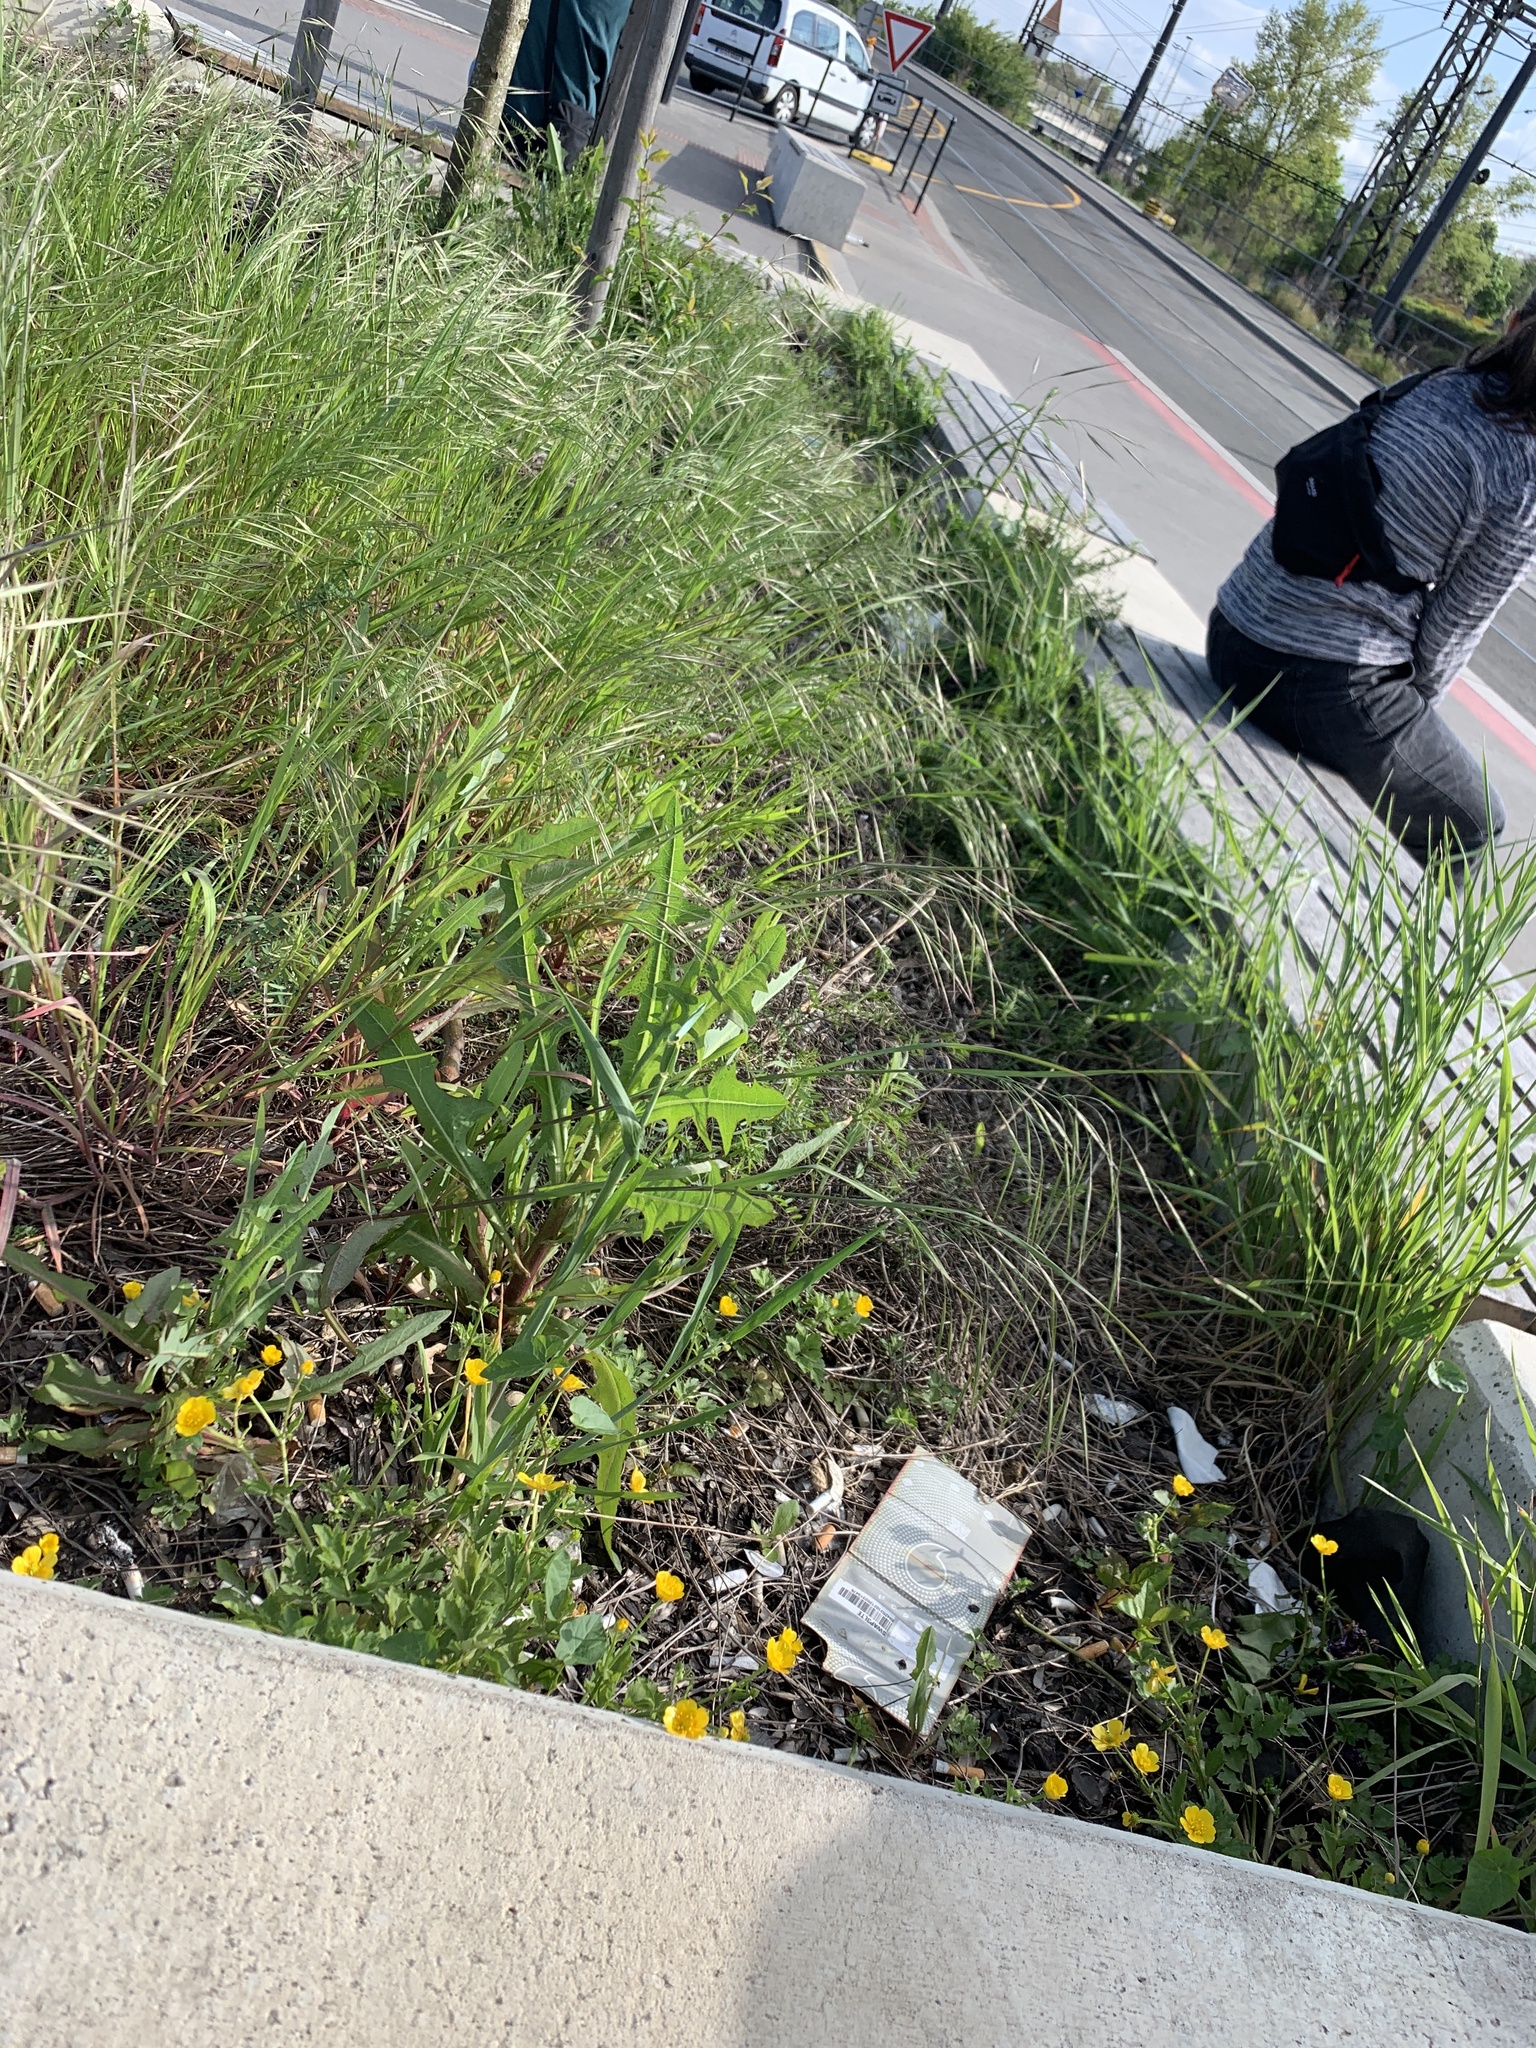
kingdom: Plantae
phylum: Tracheophyta
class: Liliopsida
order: Poales
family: Poaceae
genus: Bromus
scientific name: Bromus sterilis
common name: Poverty brome
